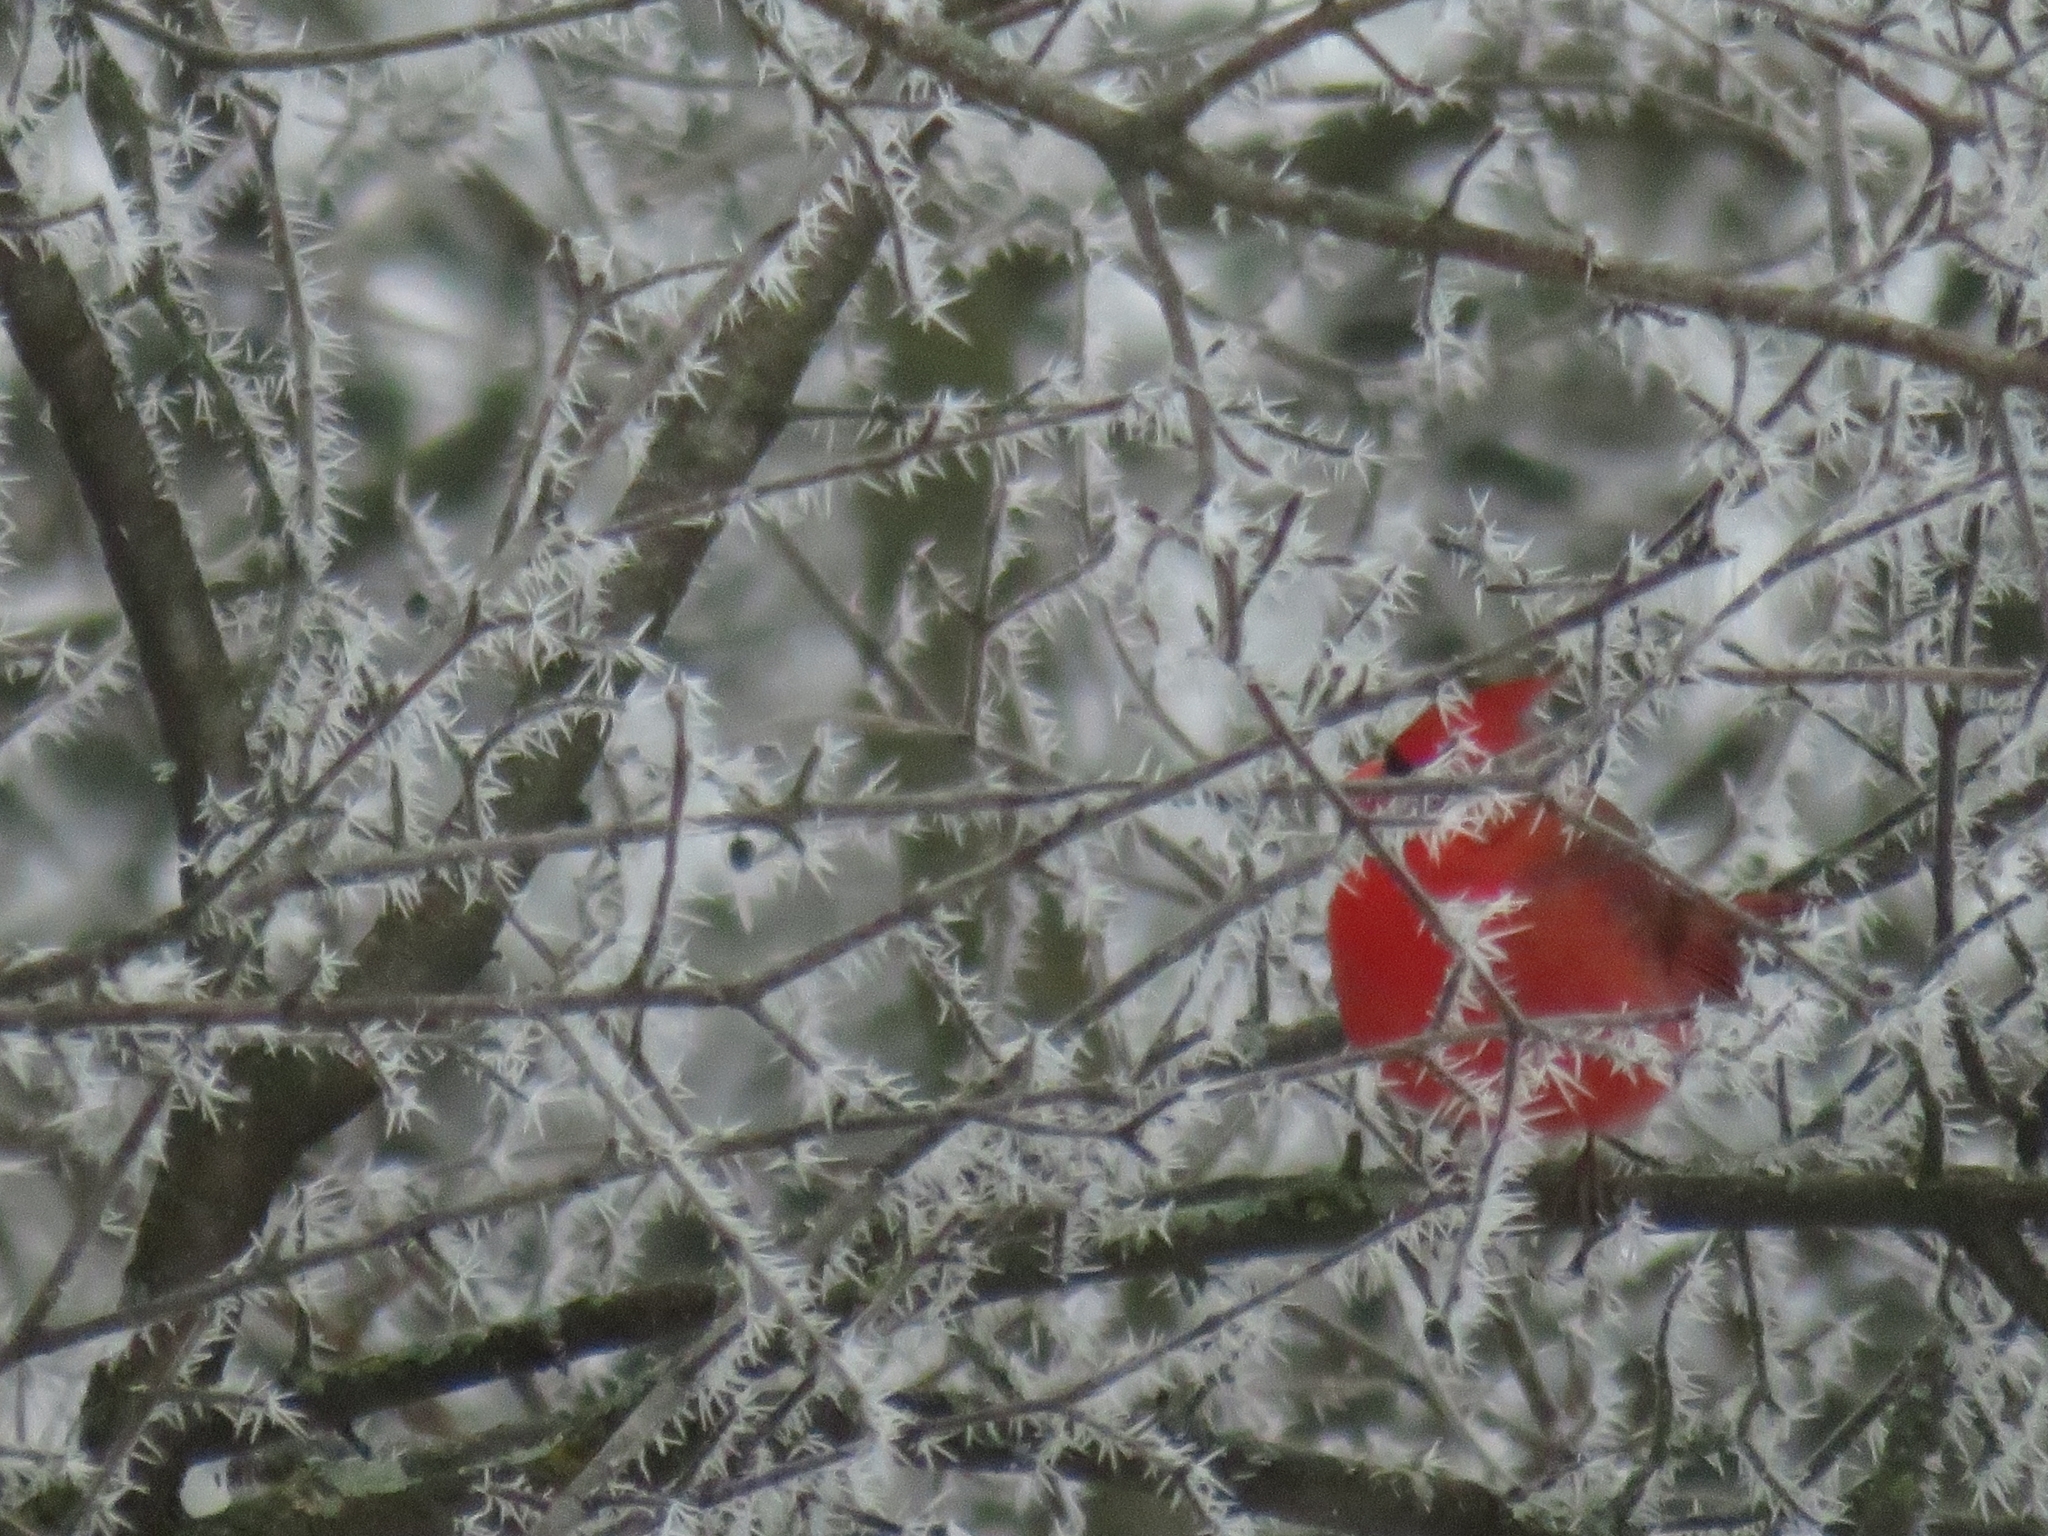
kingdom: Animalia
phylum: Chordata
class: Aves
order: Passeriformes
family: Cardinalidae
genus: Cardinalis
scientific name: Cardinalis cardinalis
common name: Northern cardinal
